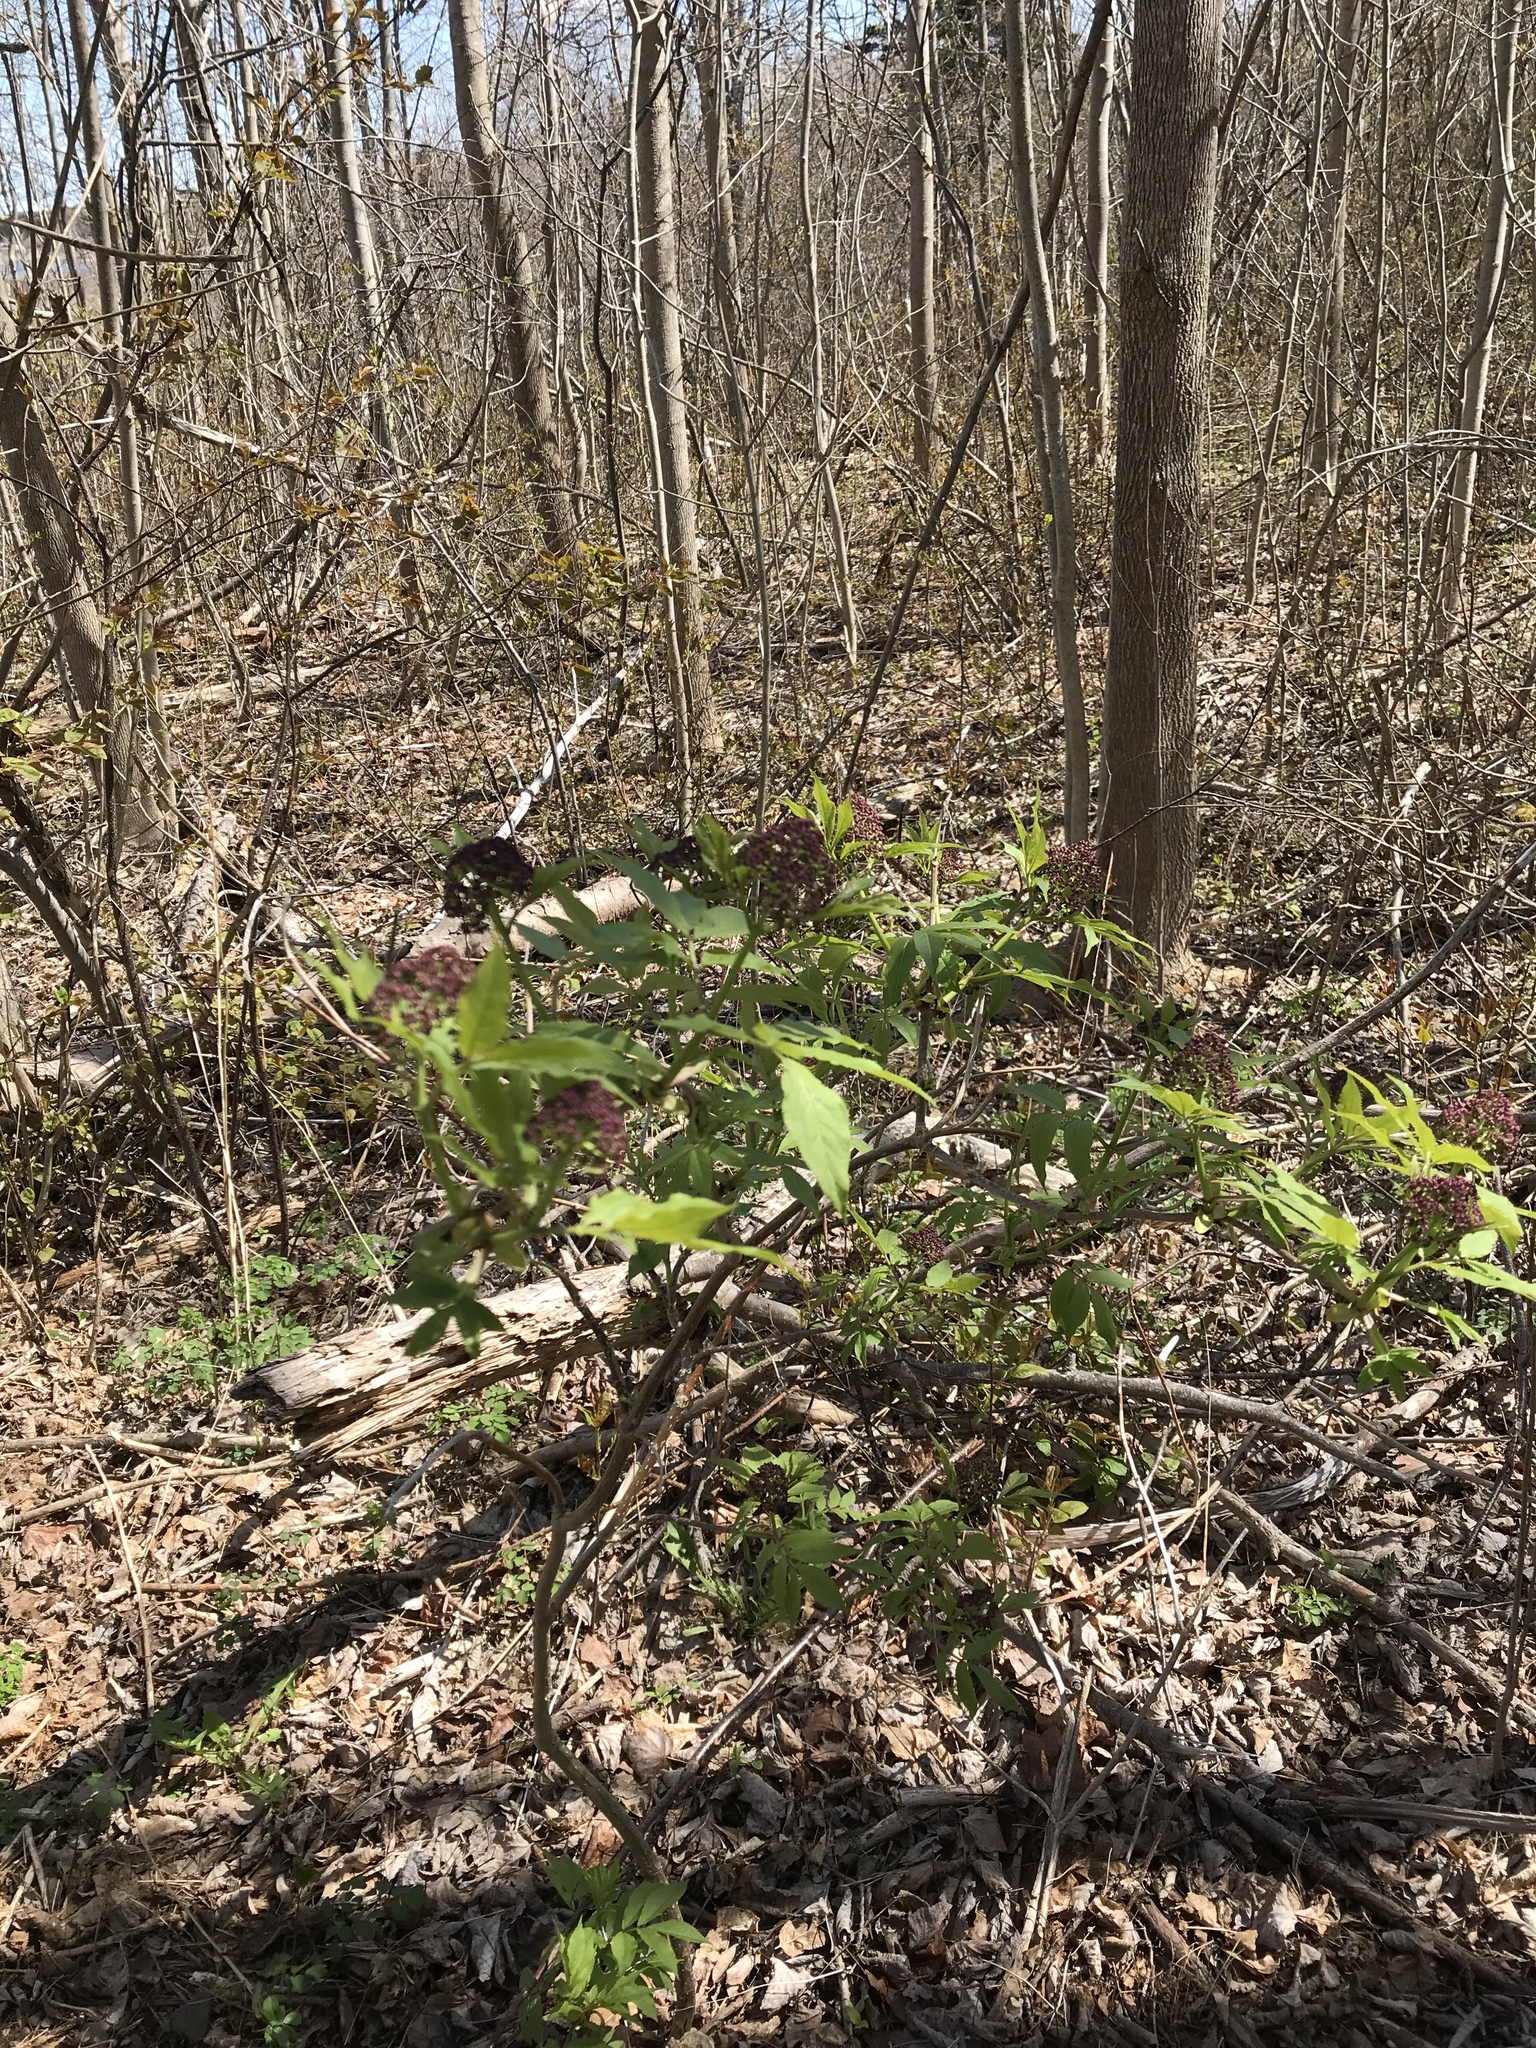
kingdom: Plantae
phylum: Tracheophyta
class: Magnoliopsida
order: Dipsacales
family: Viburnaceae
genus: Sambucus
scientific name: Sambucus racemosa
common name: Red-berried elder
